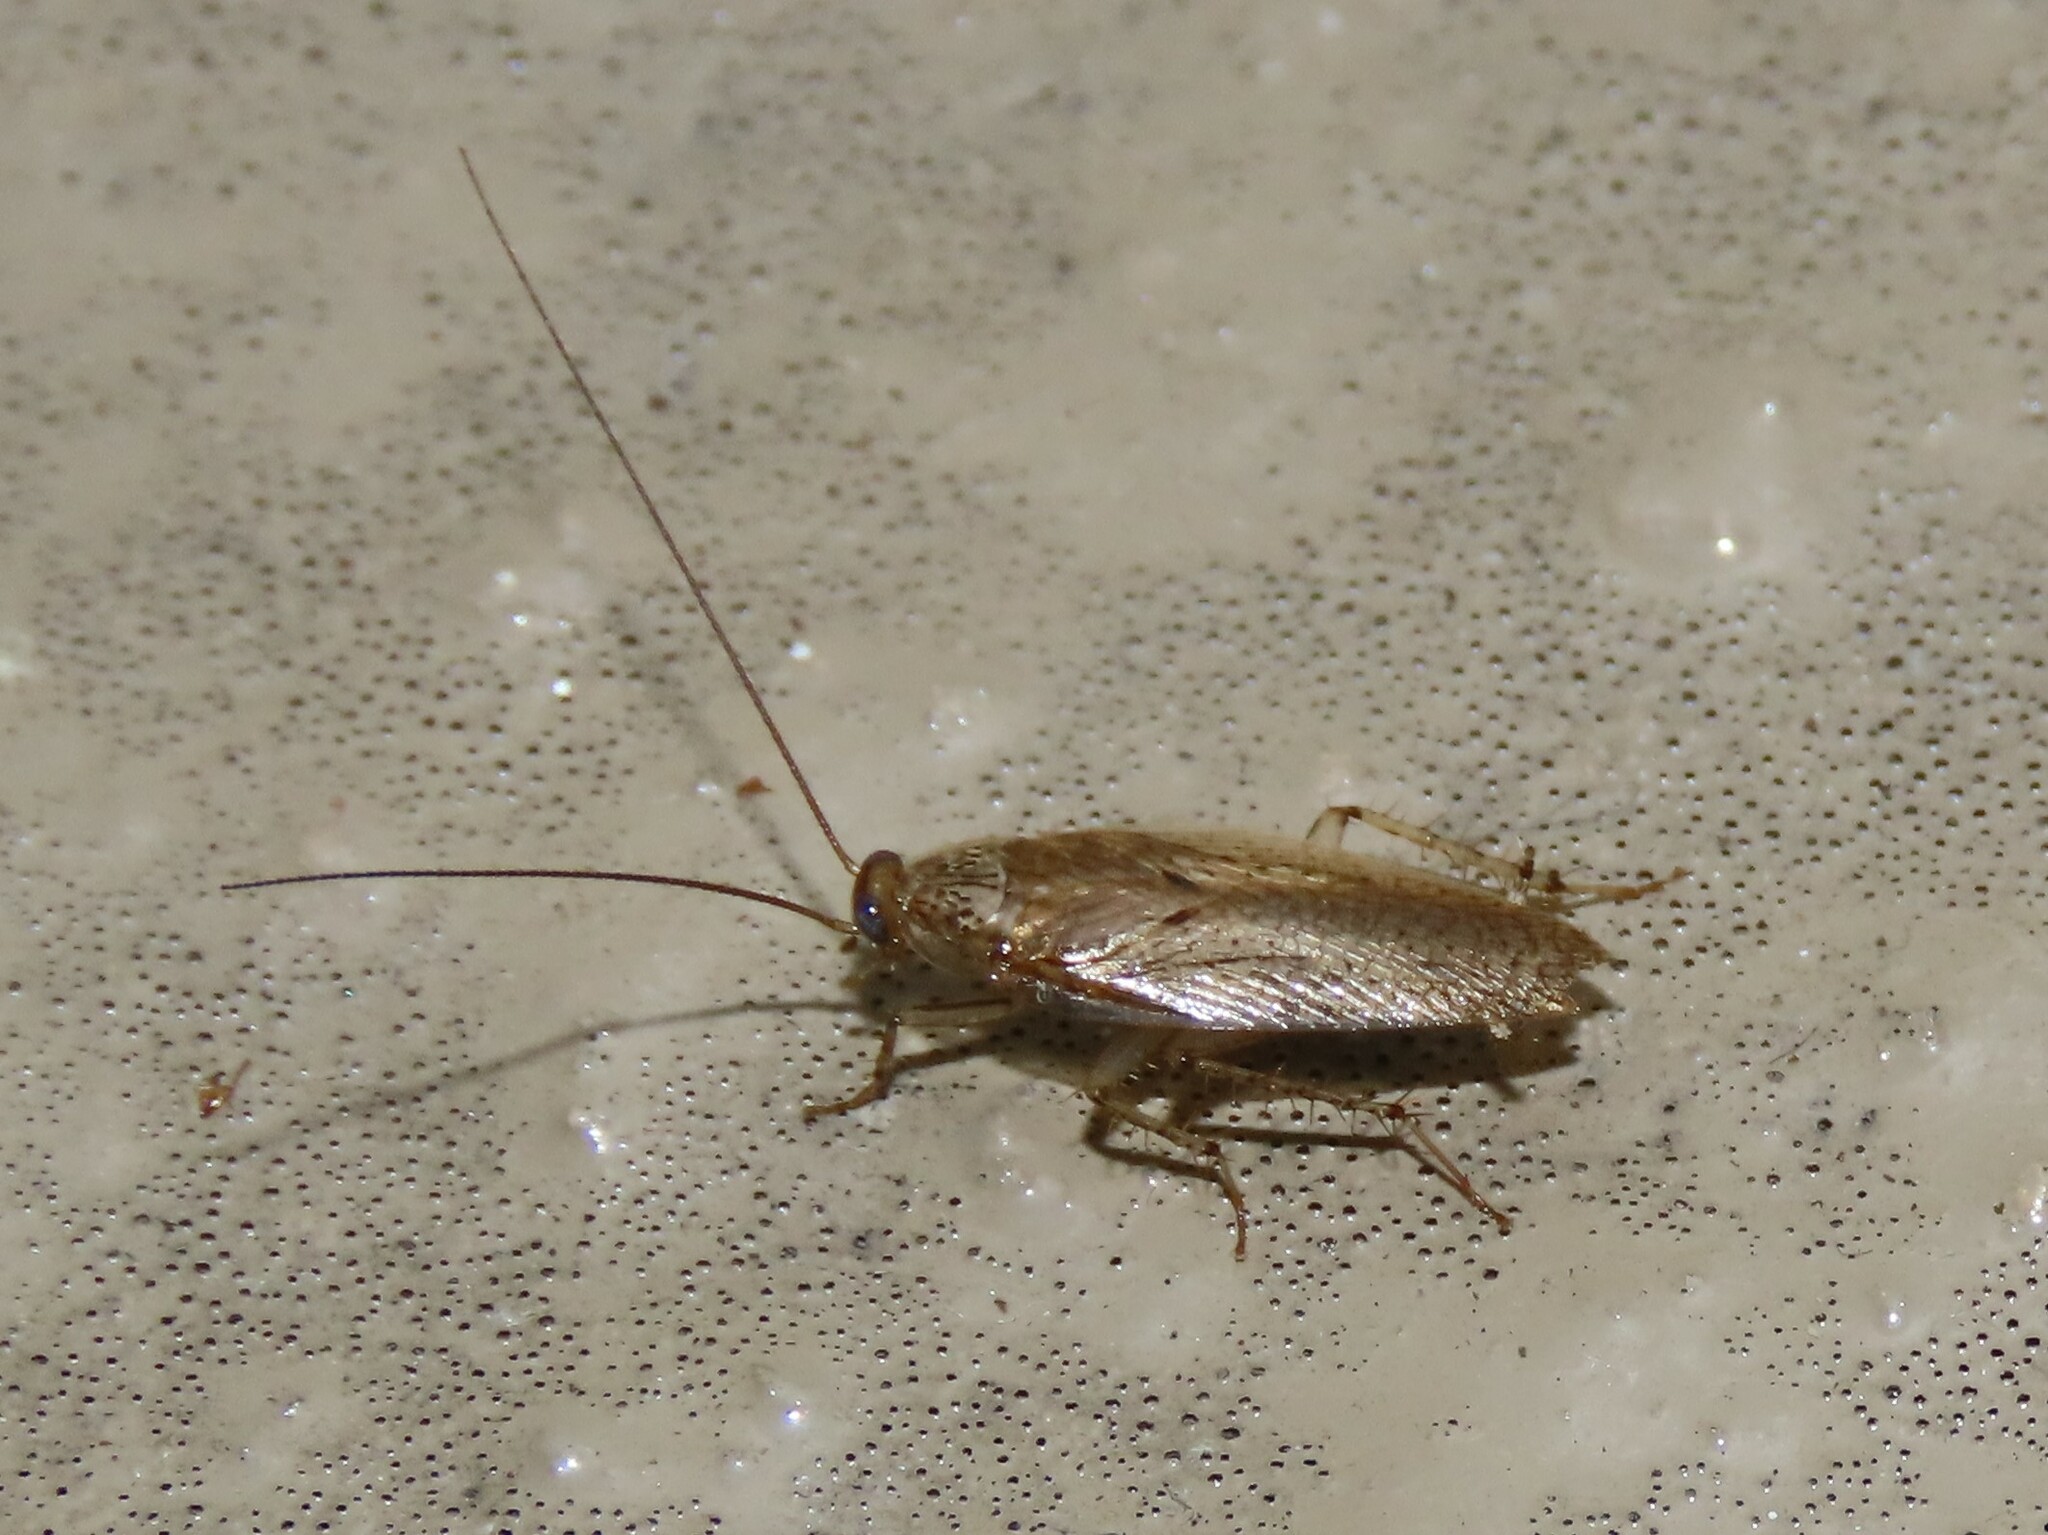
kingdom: Animalia
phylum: Arthropoda
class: Insecta
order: Blattodea
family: Ectobiidae
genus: Neoblattella
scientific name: Neoblattella detersa
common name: Wood cockroach
